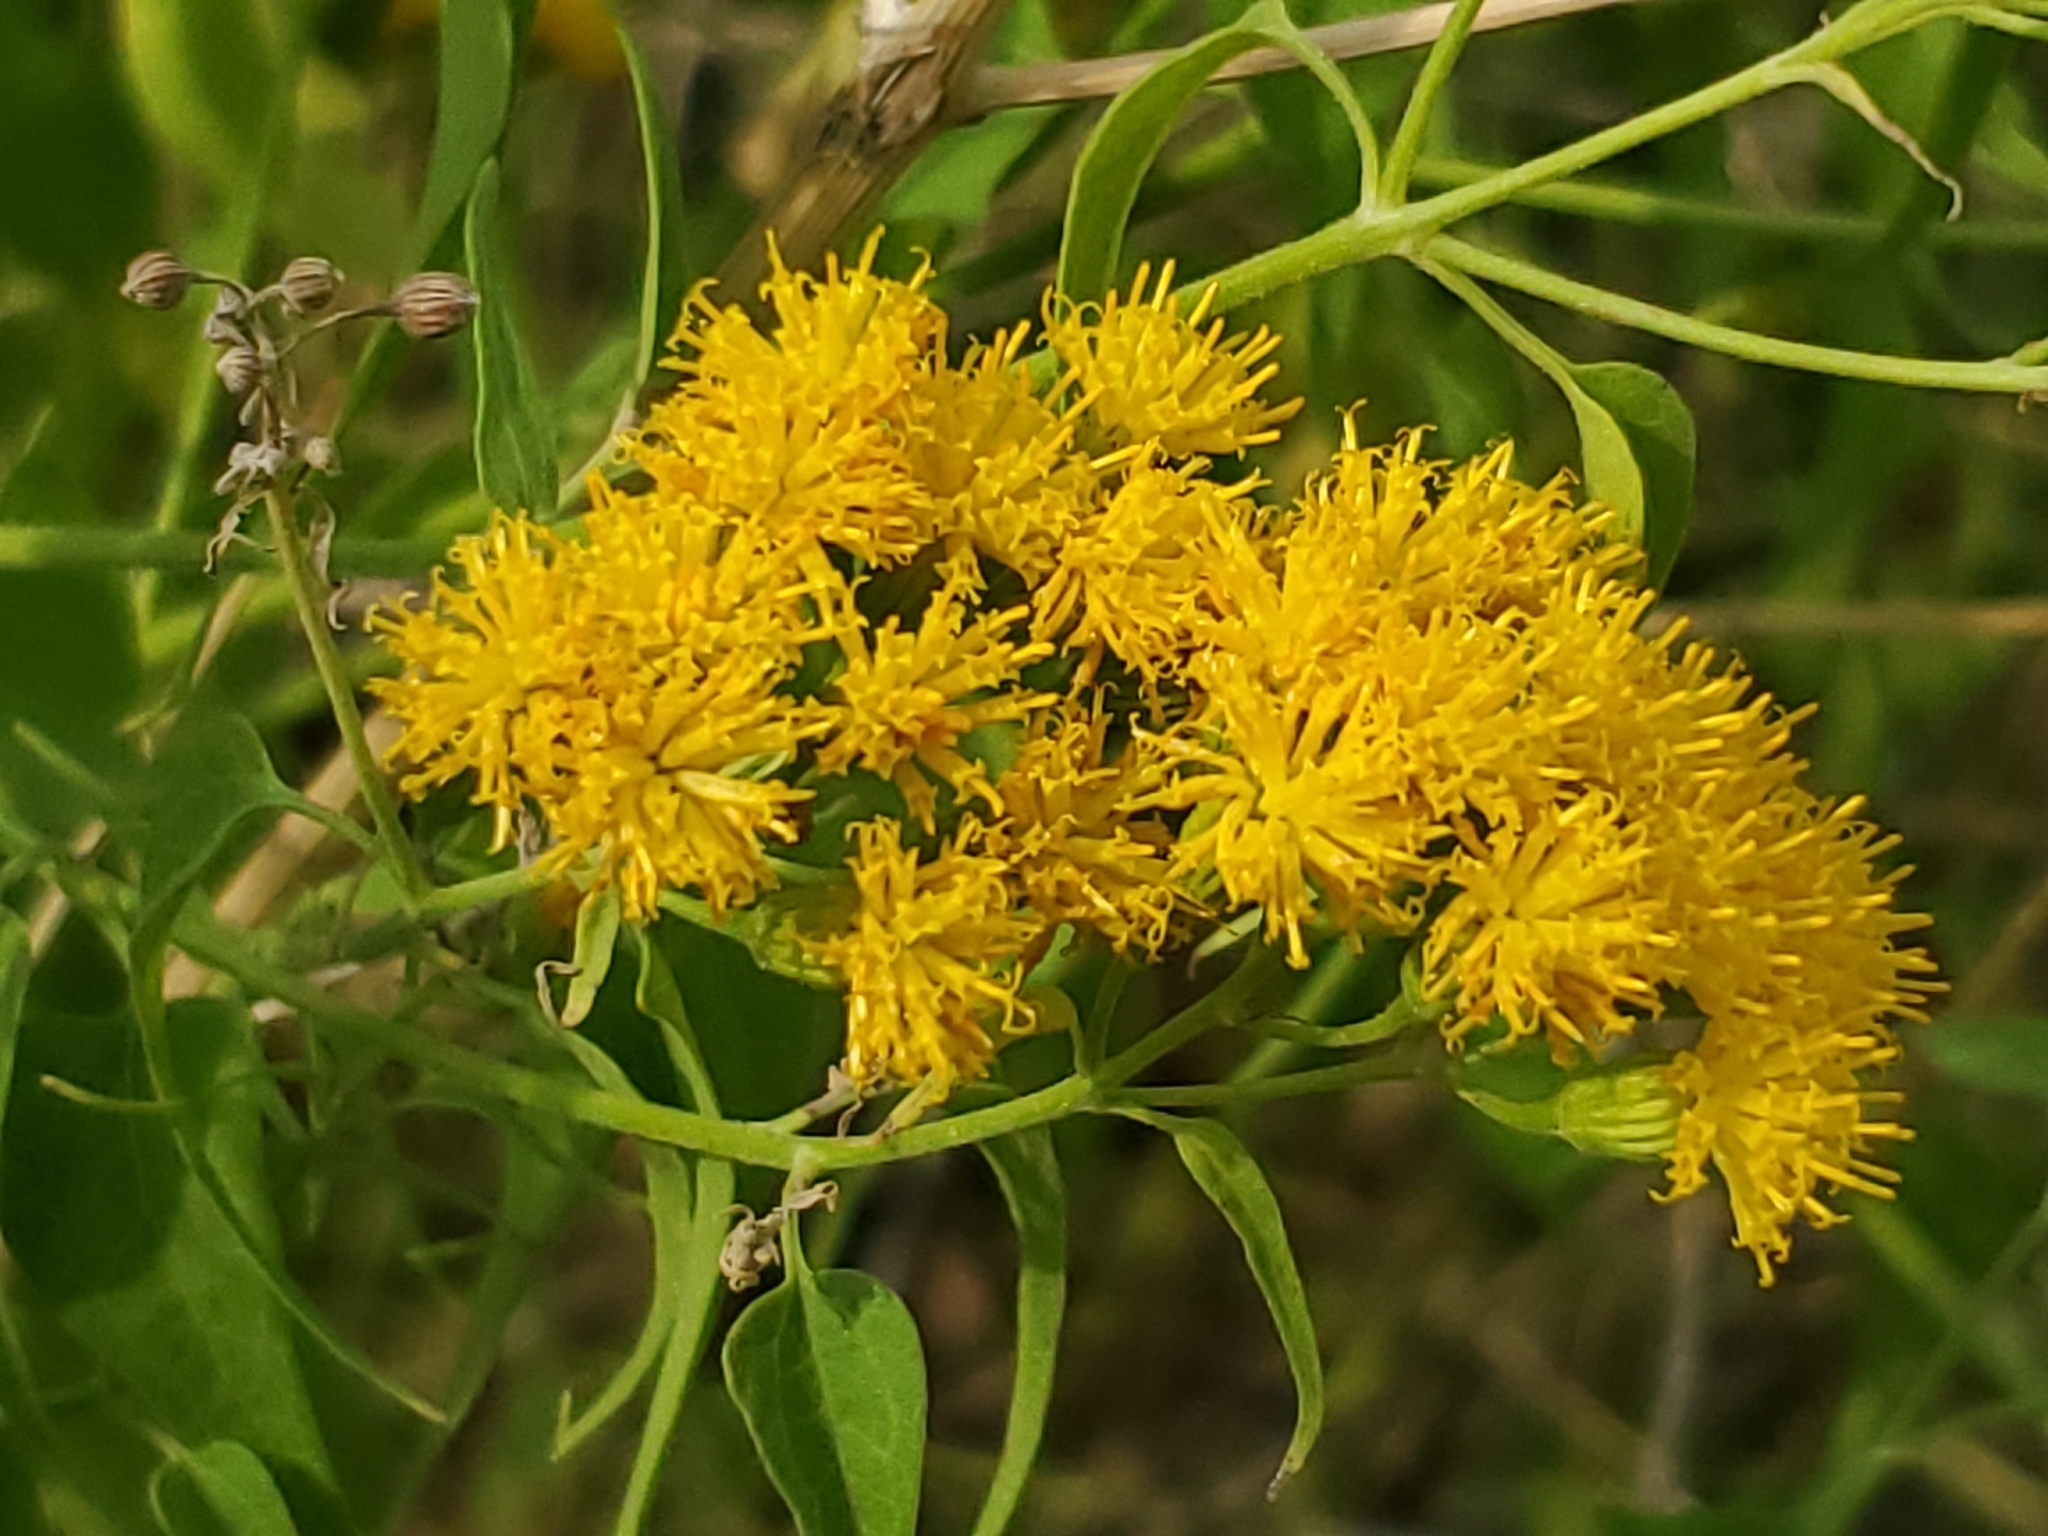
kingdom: Plantae
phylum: Tracheophyta
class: Magnoliopsida
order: Asterales
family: Asteraceae
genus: Pericome
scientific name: Pericome caudata
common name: Taperleaf
